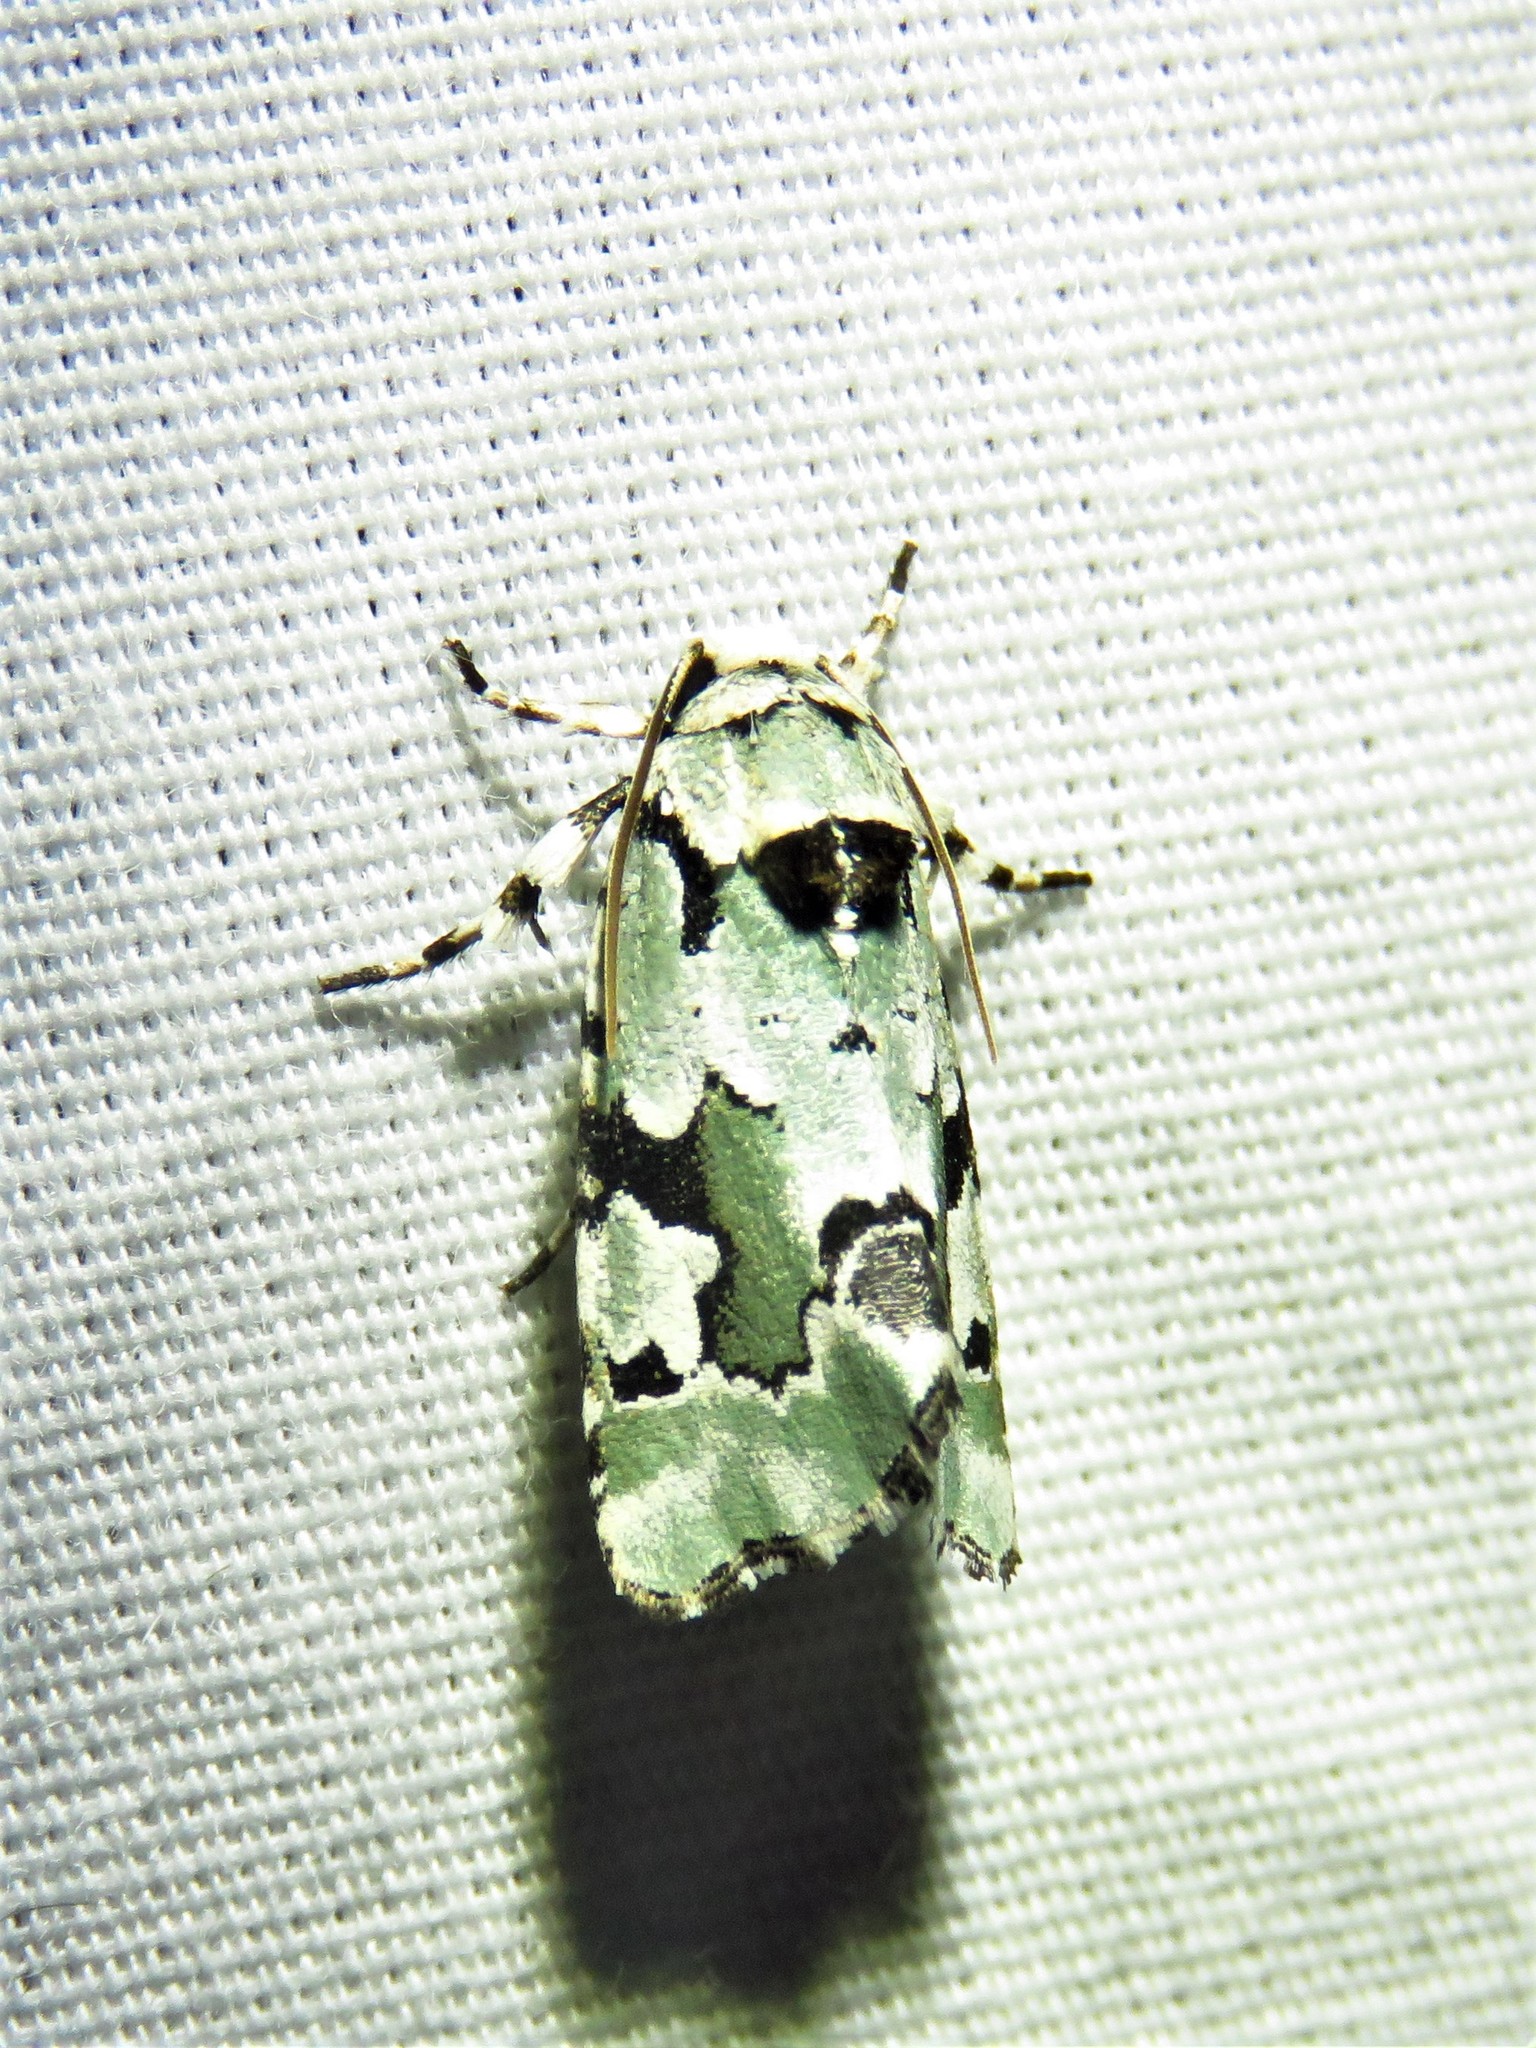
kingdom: Animalia
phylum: Arthropoda
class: Insecta
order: Lepidoptera
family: Noctuidae
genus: Emarginea
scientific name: Emarginea percara
